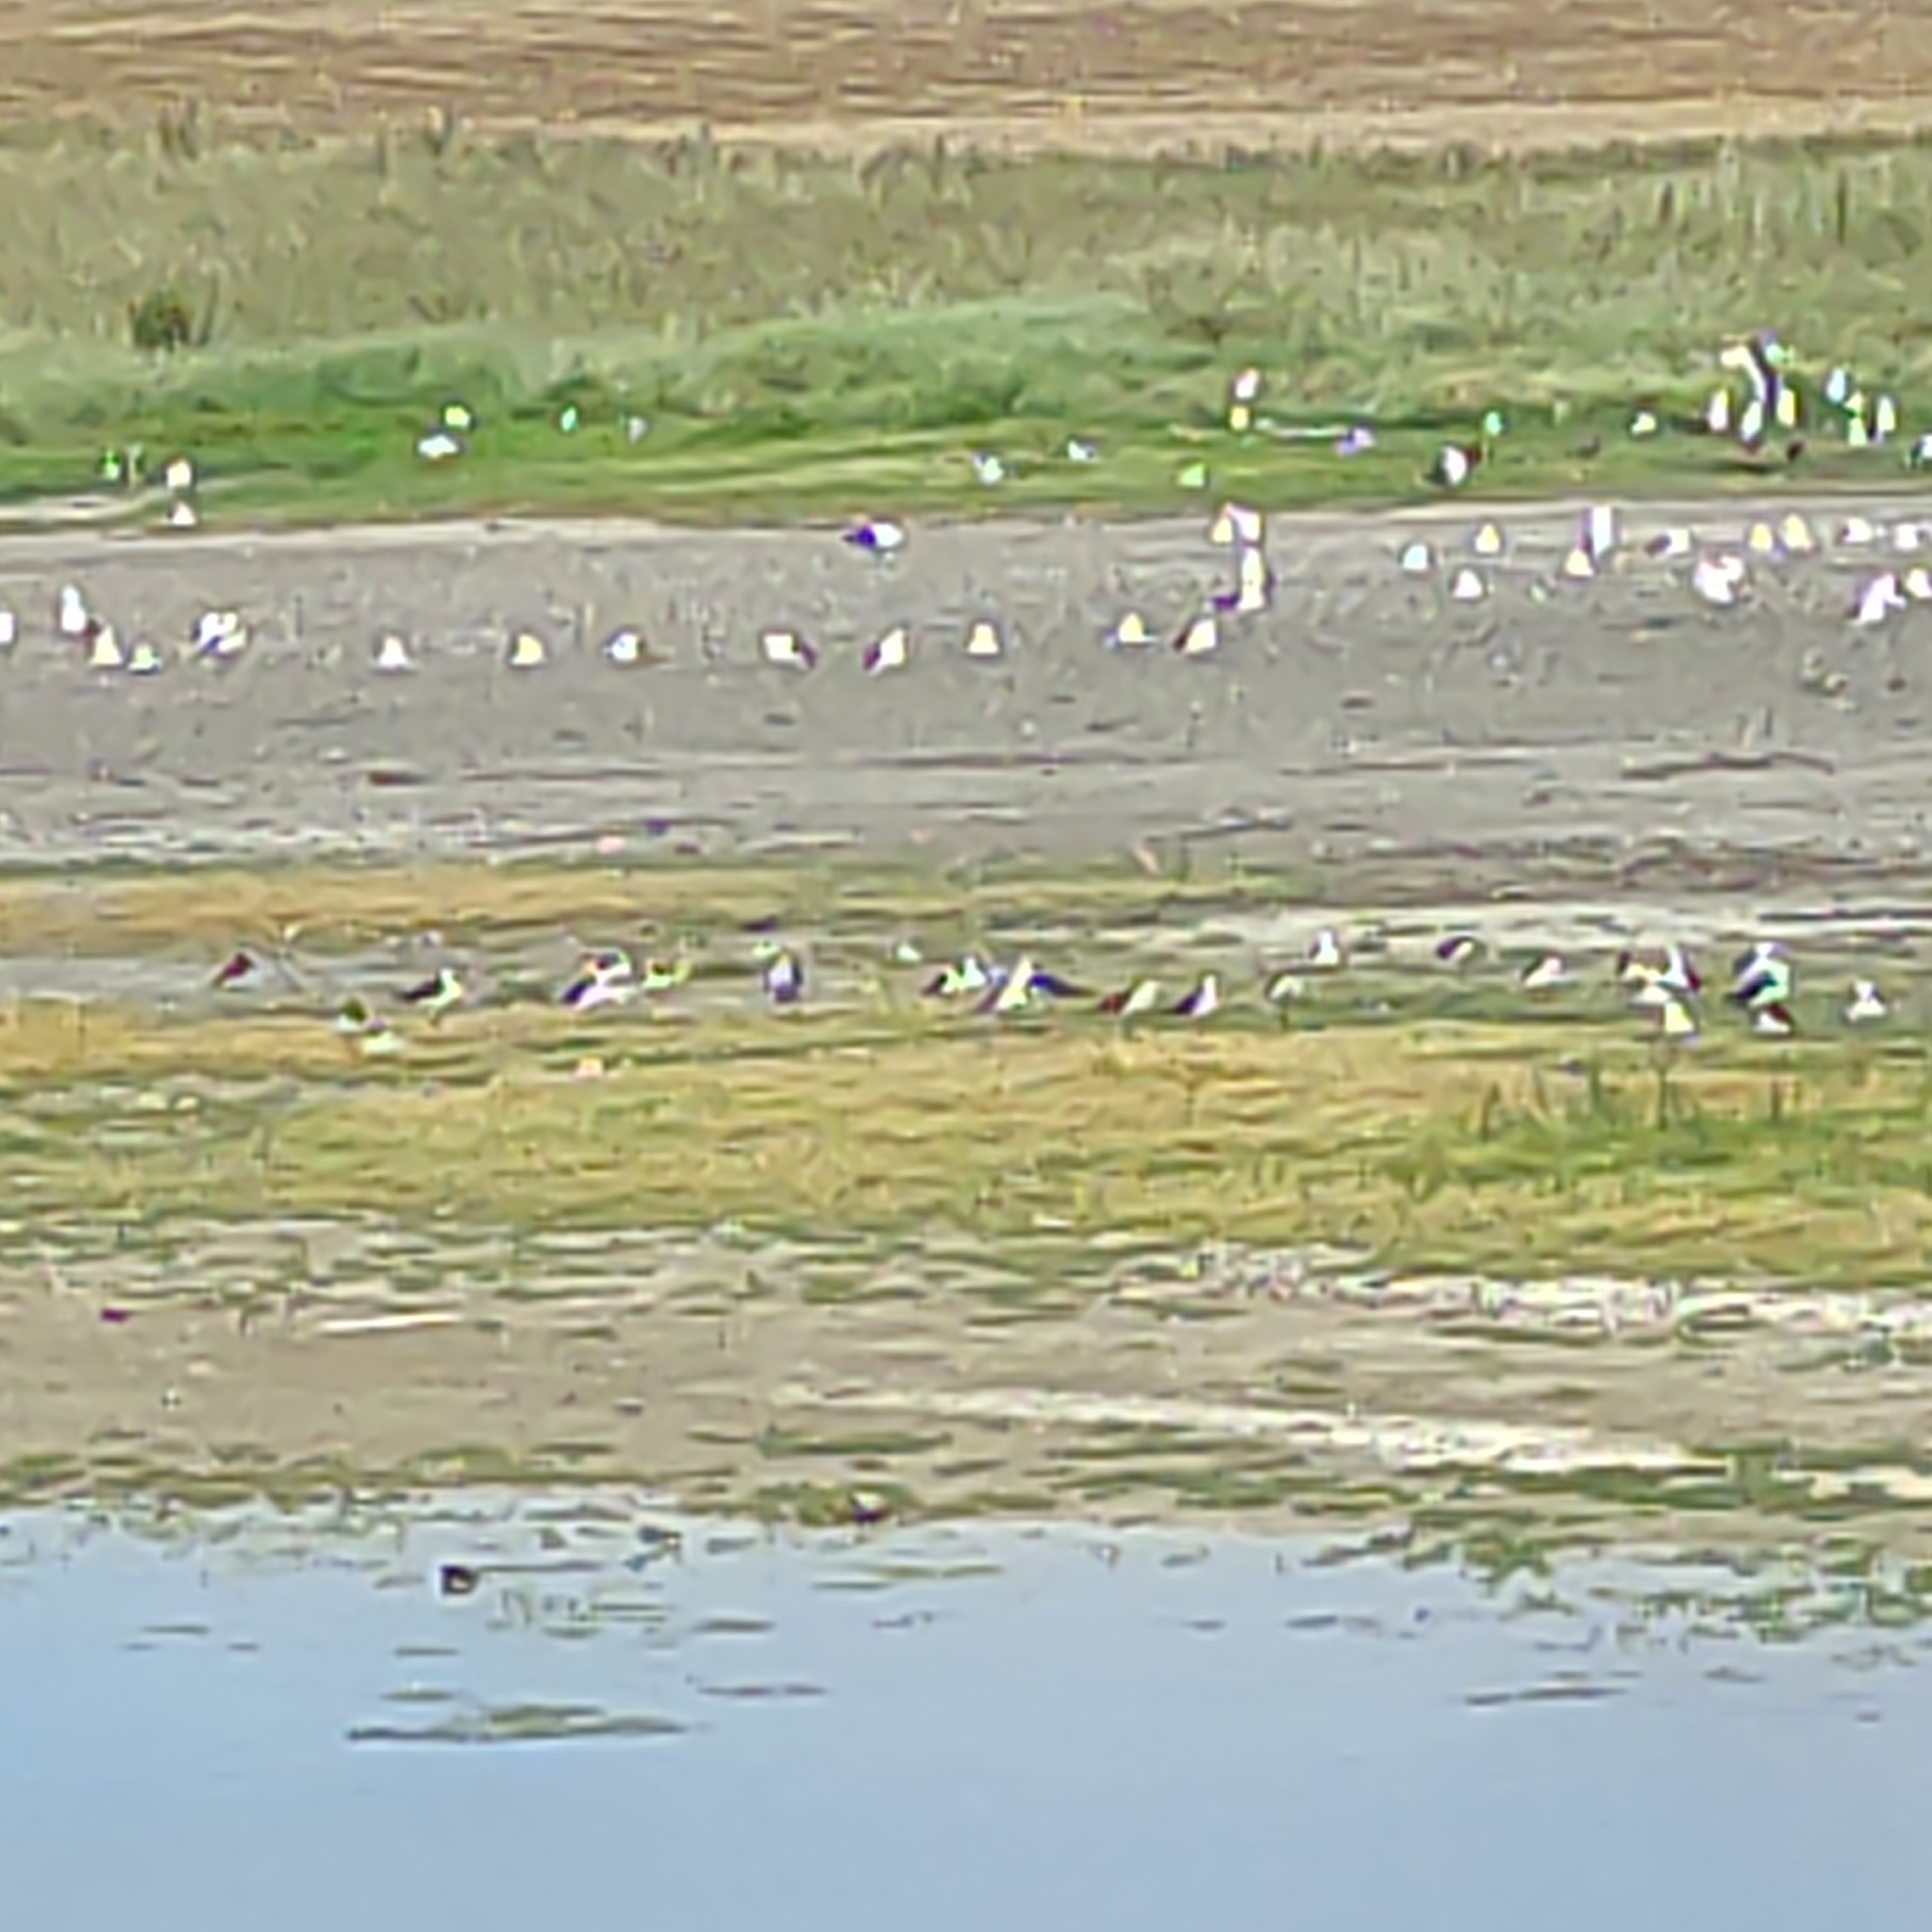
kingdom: Animalia
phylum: Chordata
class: Aves
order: Charadriiformes
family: Recurvirostridae
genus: Himantopus
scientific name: Himantopus leucocephalus
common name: White-headed stilt
